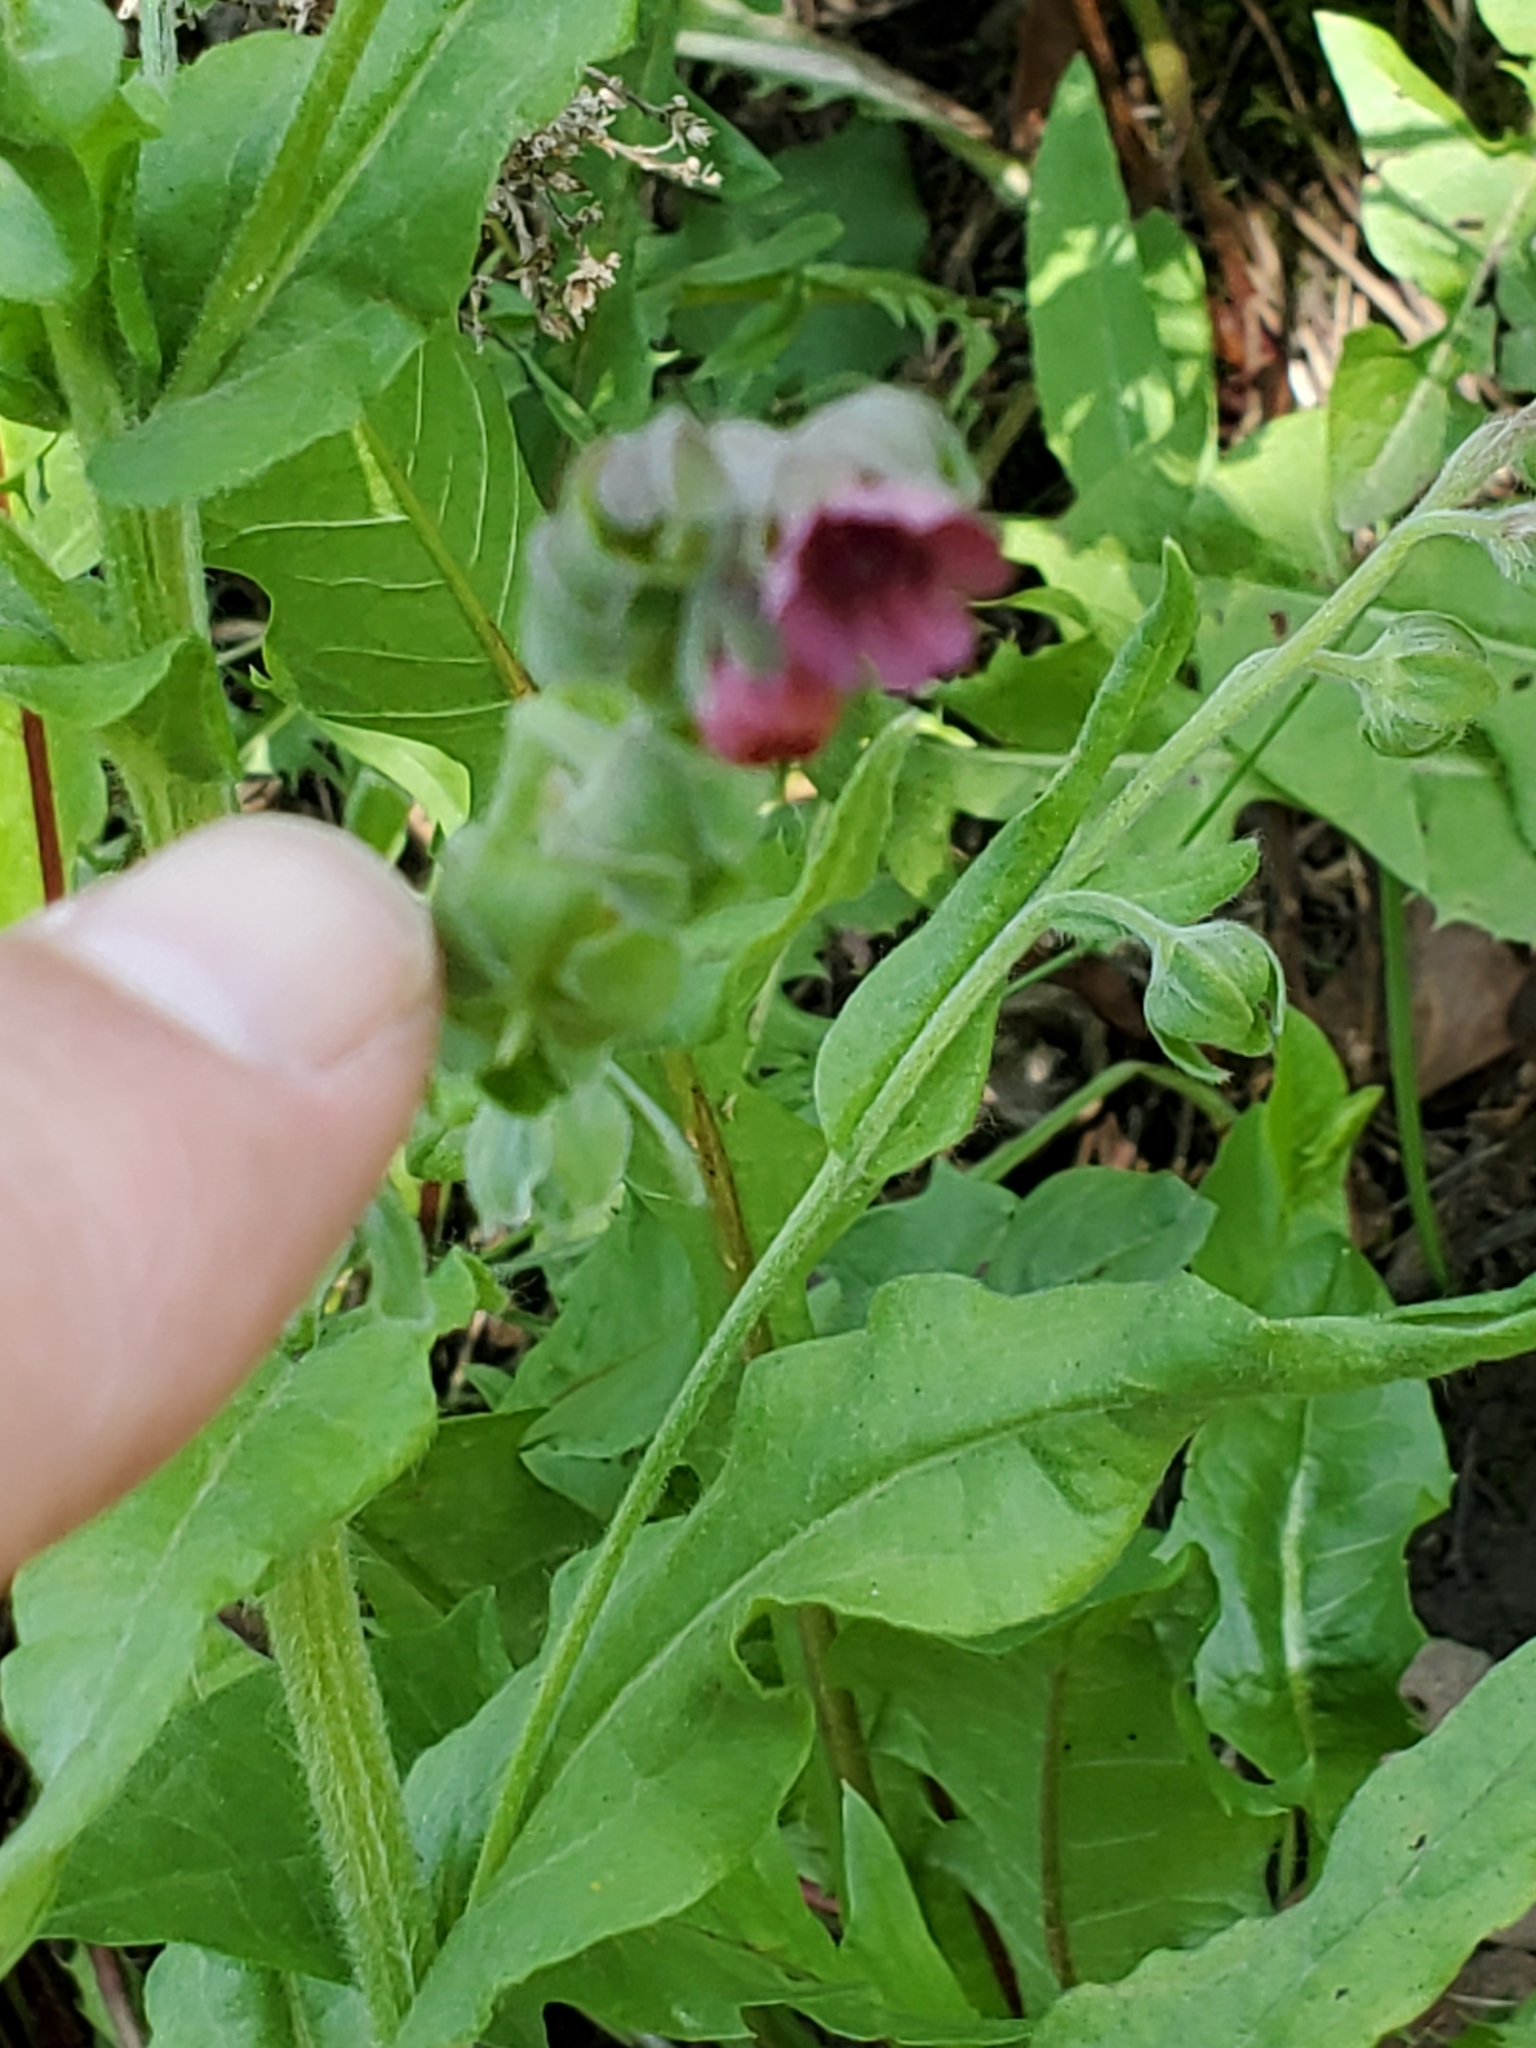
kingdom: Plantae
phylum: Tracheophyta
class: Magnoliopsida
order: Boraginales
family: Boraginaceae
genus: Cynoglossum
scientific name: Cynoglossum officinale
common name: Hound's-tongue
